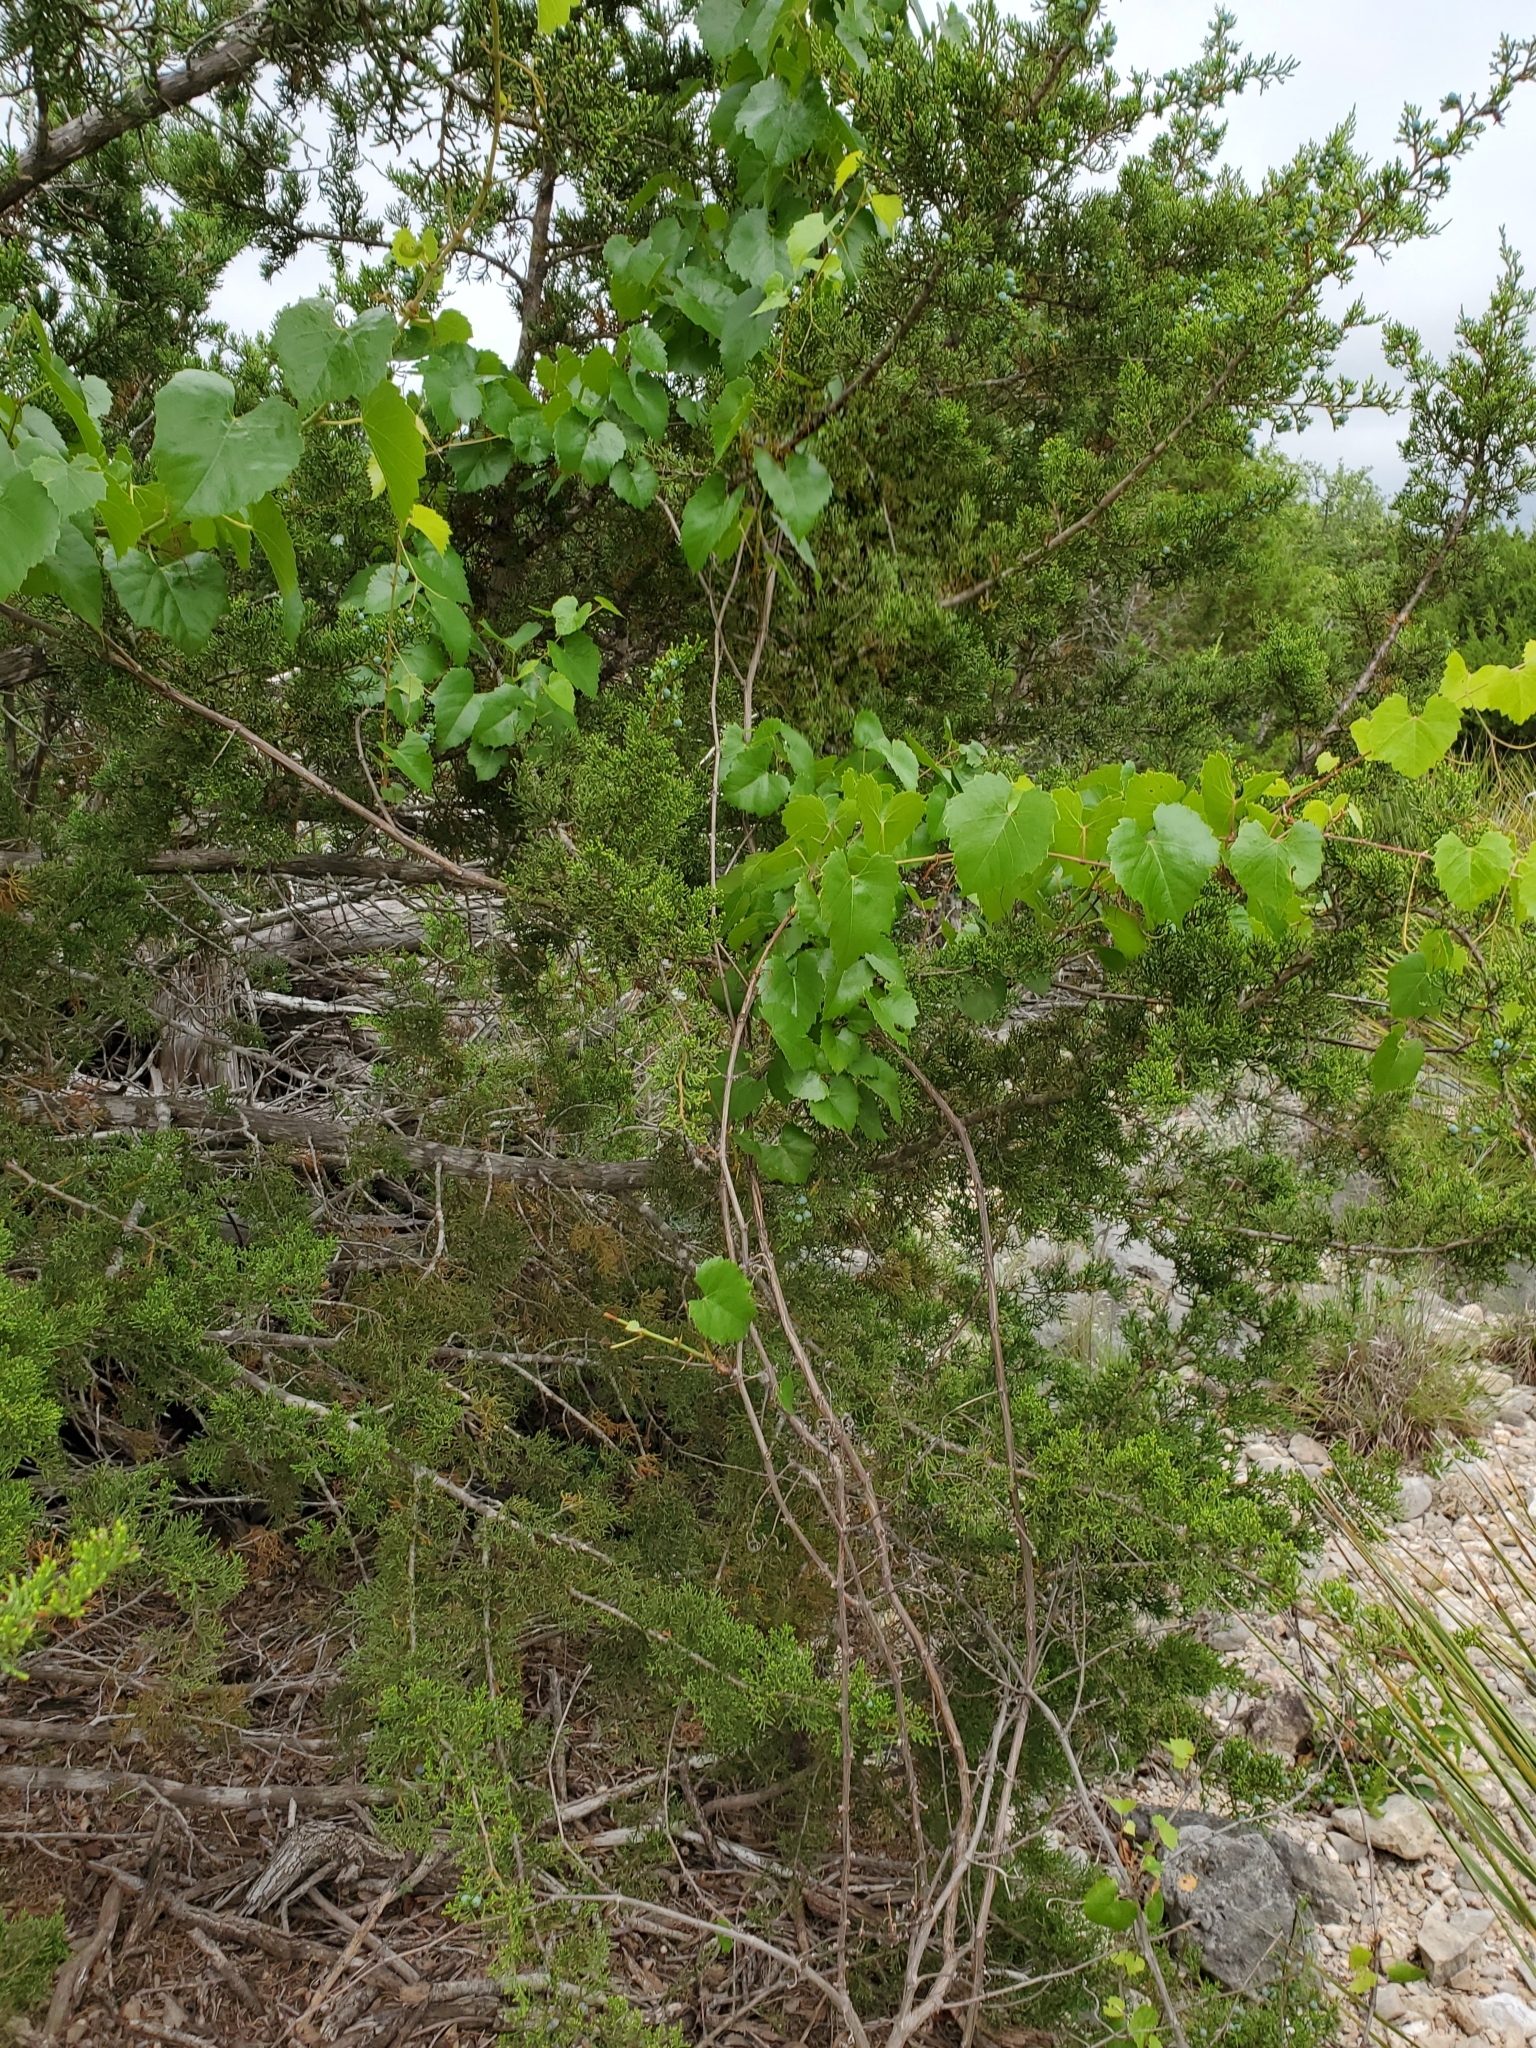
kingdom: Plantae
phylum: Tracheophyta
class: Magnoliopsida
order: Vitales
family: Vitaceae
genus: Vitis
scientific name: Vitis monticola
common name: Mountain grape
